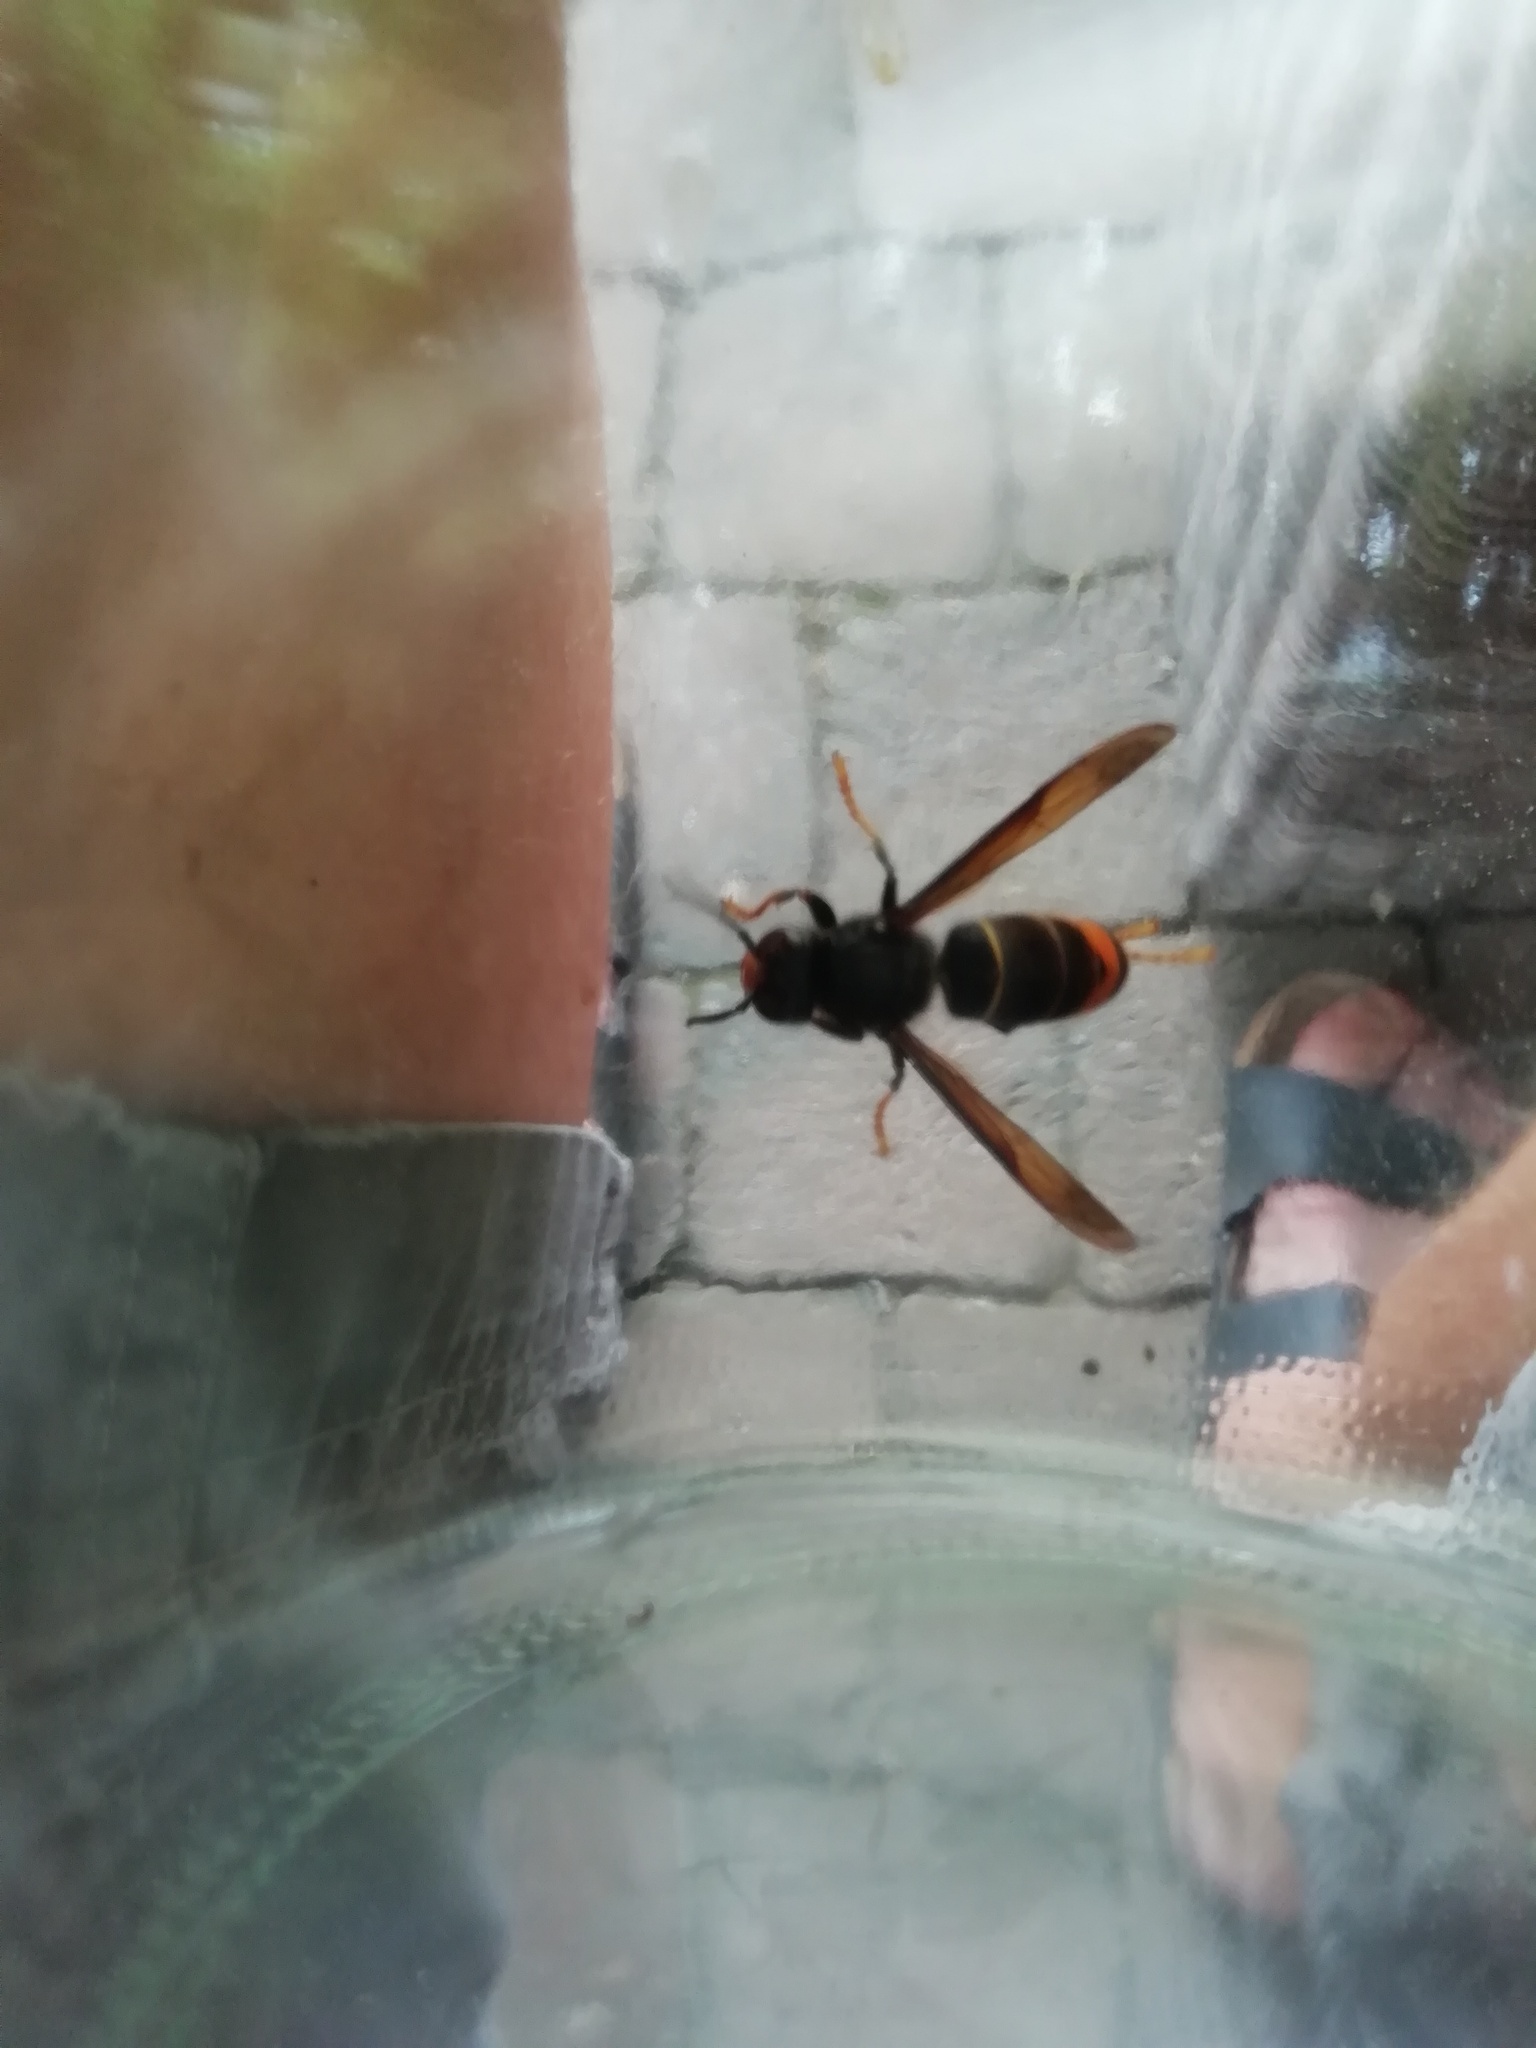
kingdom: Animalia
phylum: Arthropoda
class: Insecta
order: Hymenoptera
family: Vespidae
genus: Vespa
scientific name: Vespa velutina
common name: Asian hornet
